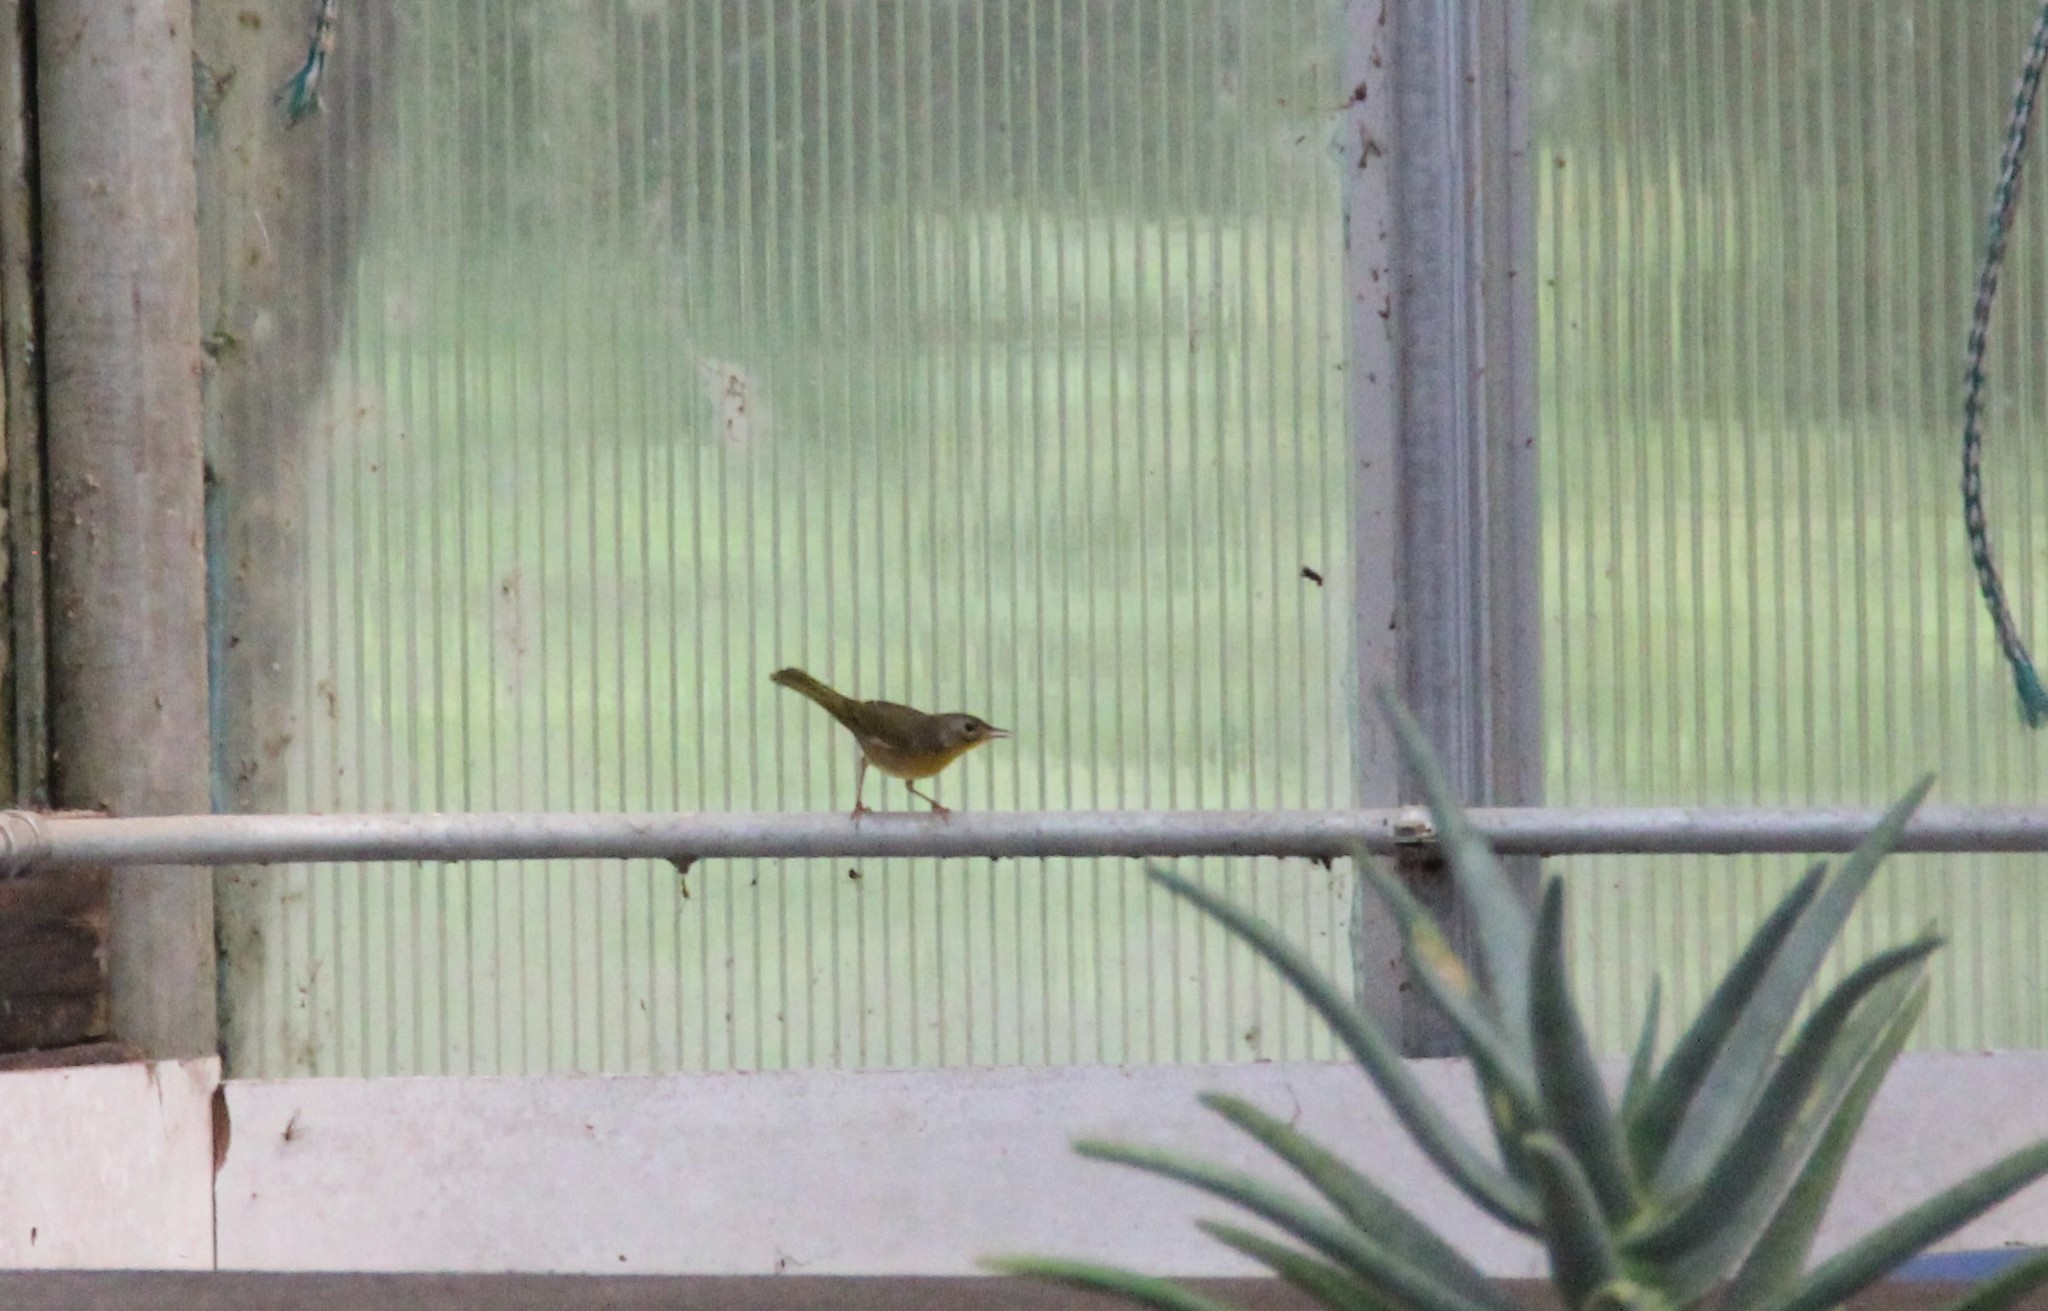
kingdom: Animalia
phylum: Chordata
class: Aves
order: Passeriformes
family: Parulidae
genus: Geothlypis
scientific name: Geothlypis trichas
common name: Common yellowthroat
